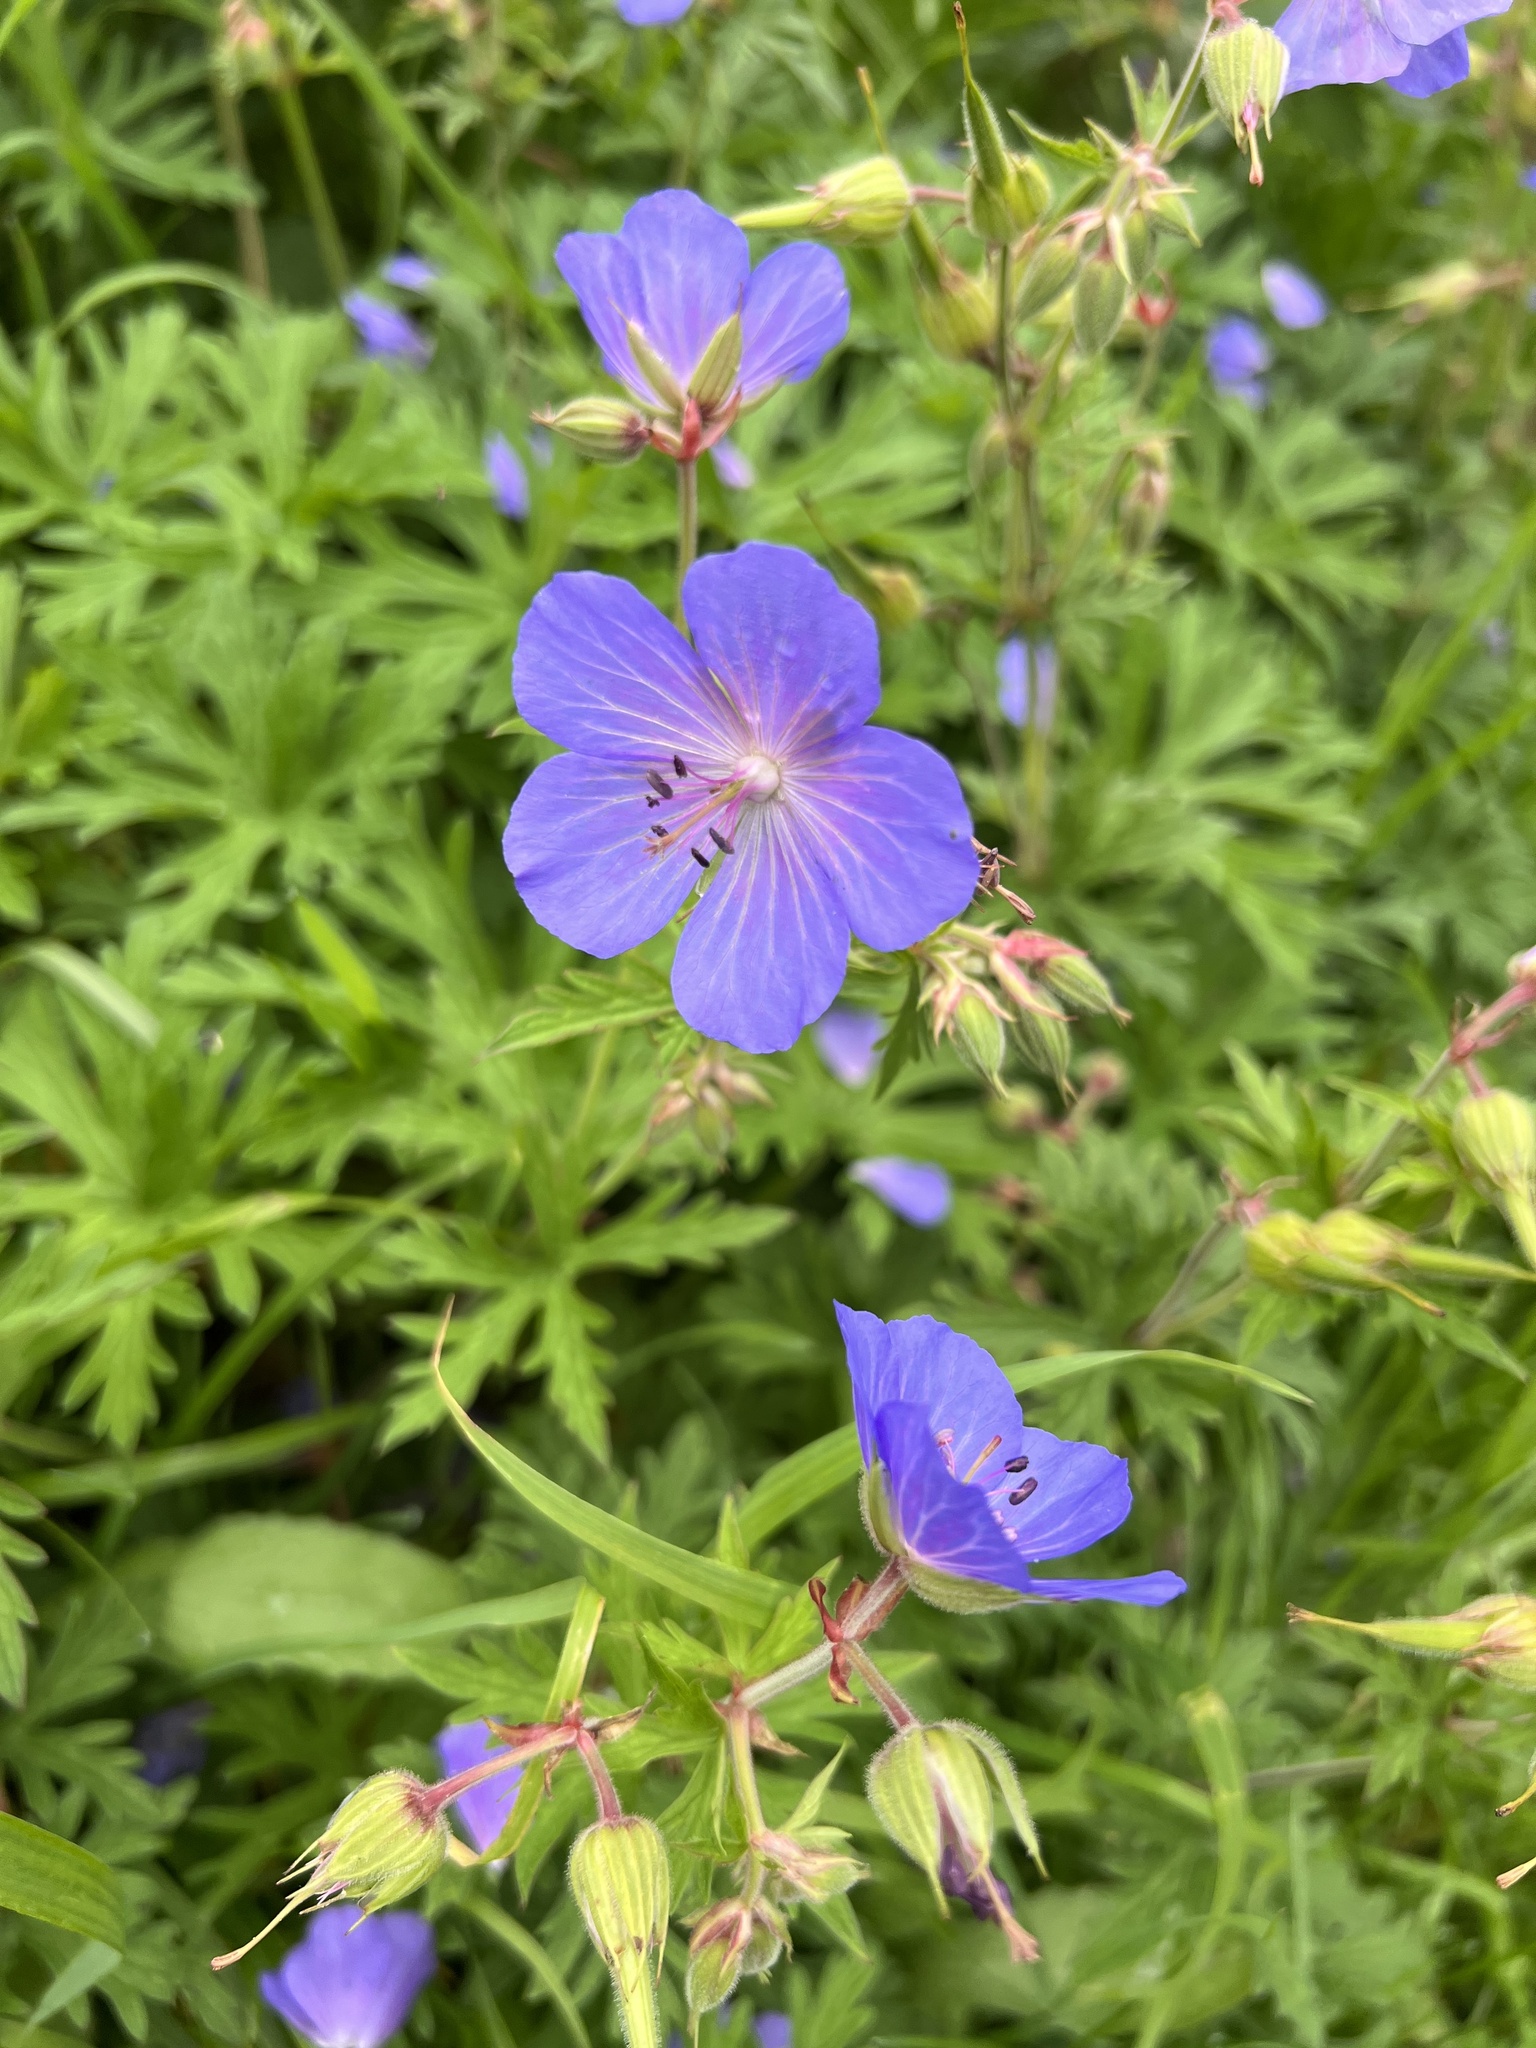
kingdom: Plantae
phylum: Tracheophyta
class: Magnoliopsida
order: Geraniales
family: Geraniaceae
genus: Geranium
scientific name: Geranium pratense
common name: Meadow crane's-bill
